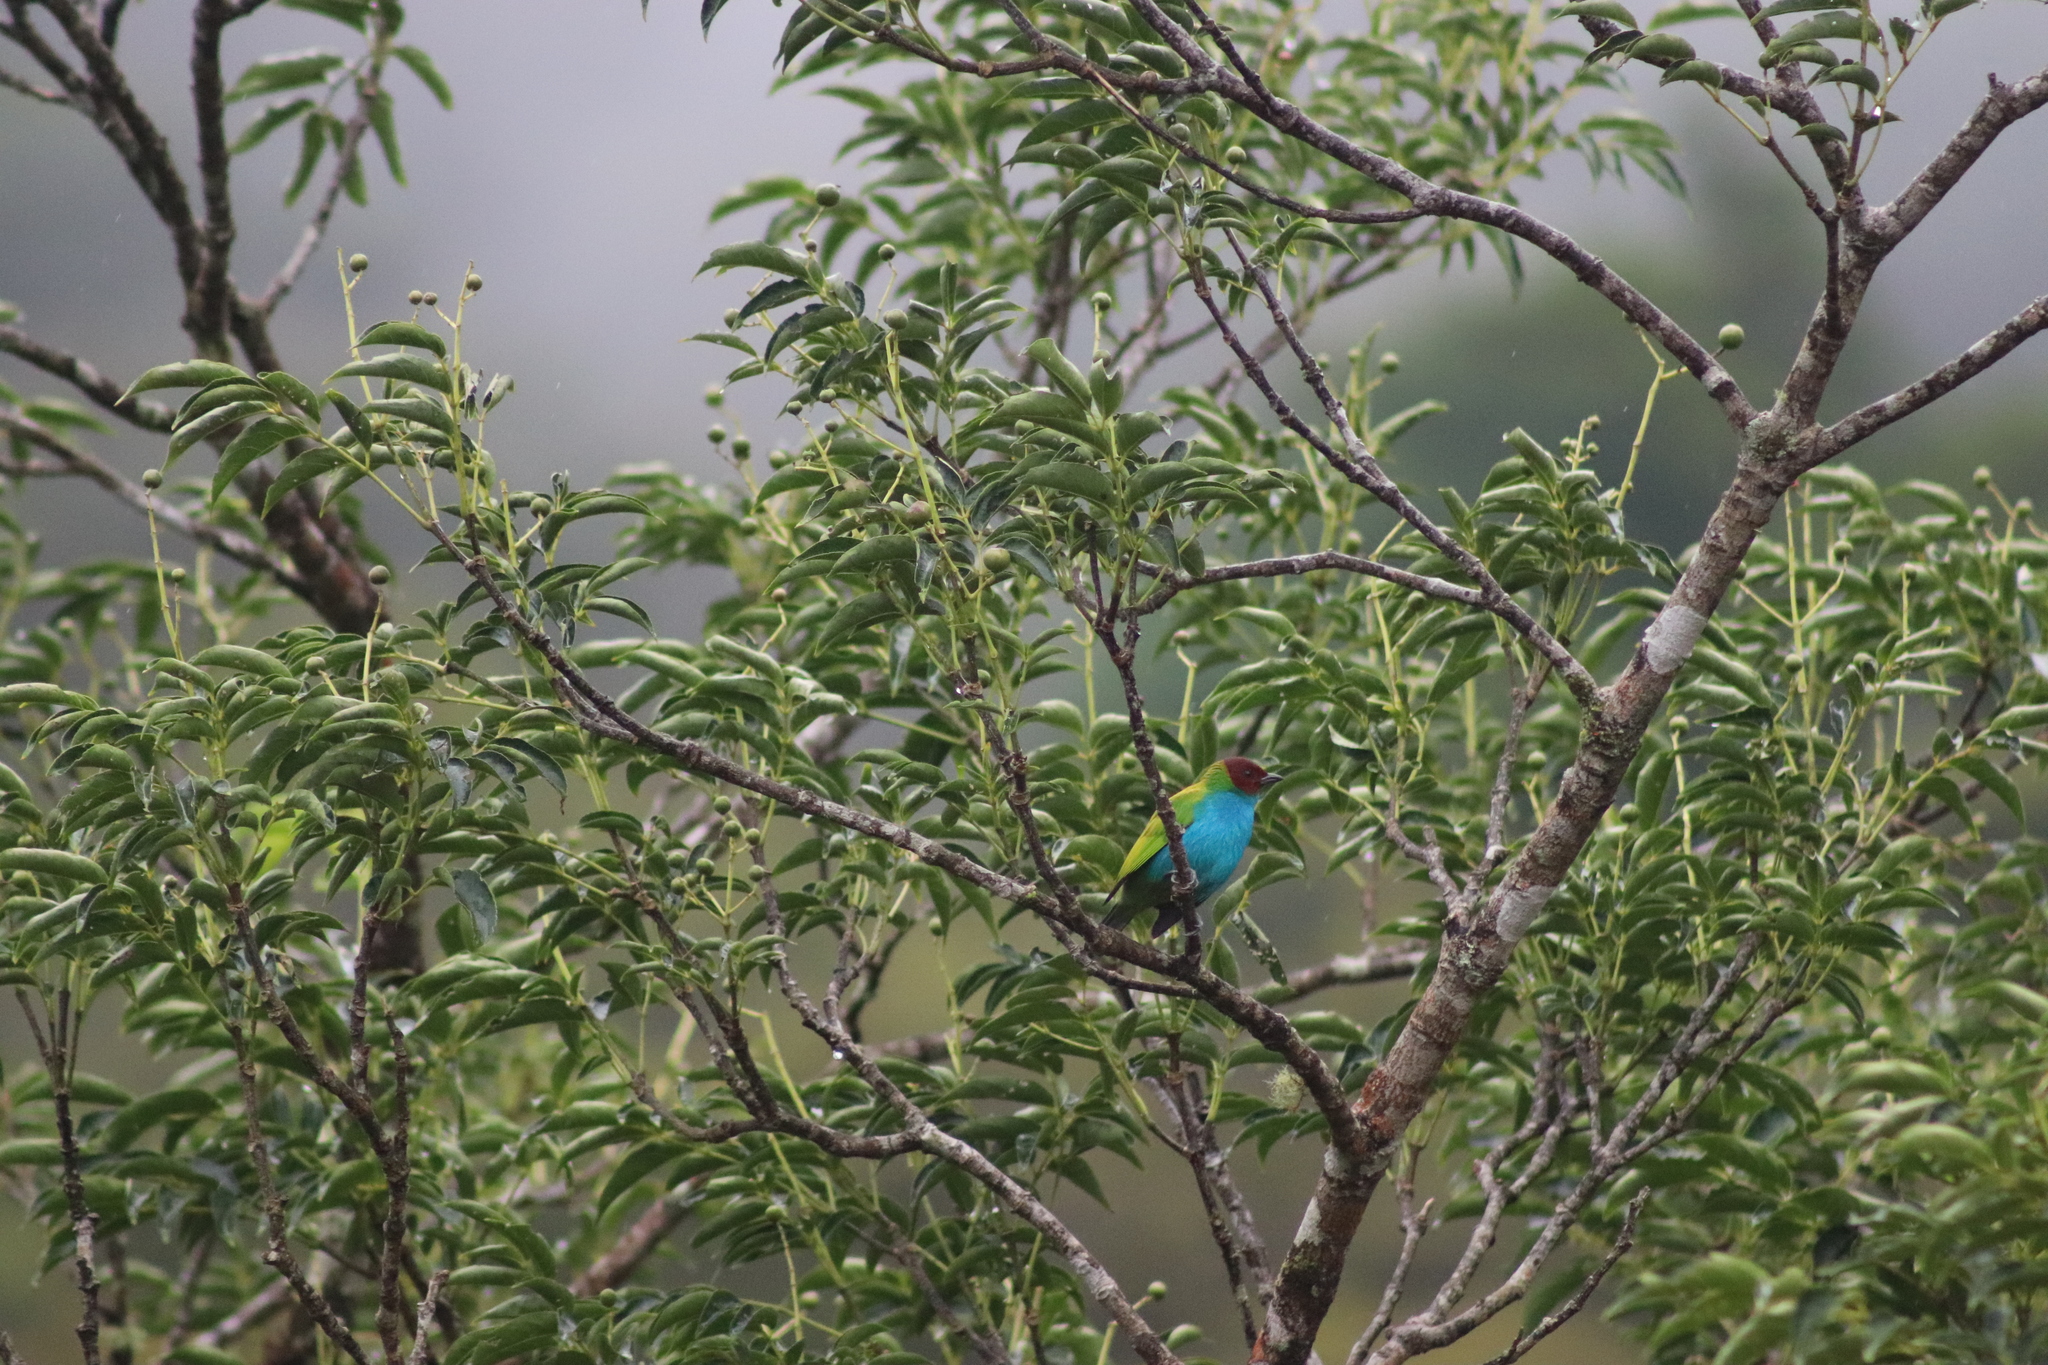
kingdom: Animalia
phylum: Chordata
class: Aves
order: Passeriformes
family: Thraupidae
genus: Tangara
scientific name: Tangara gyrola
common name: Bay-headed tanager
